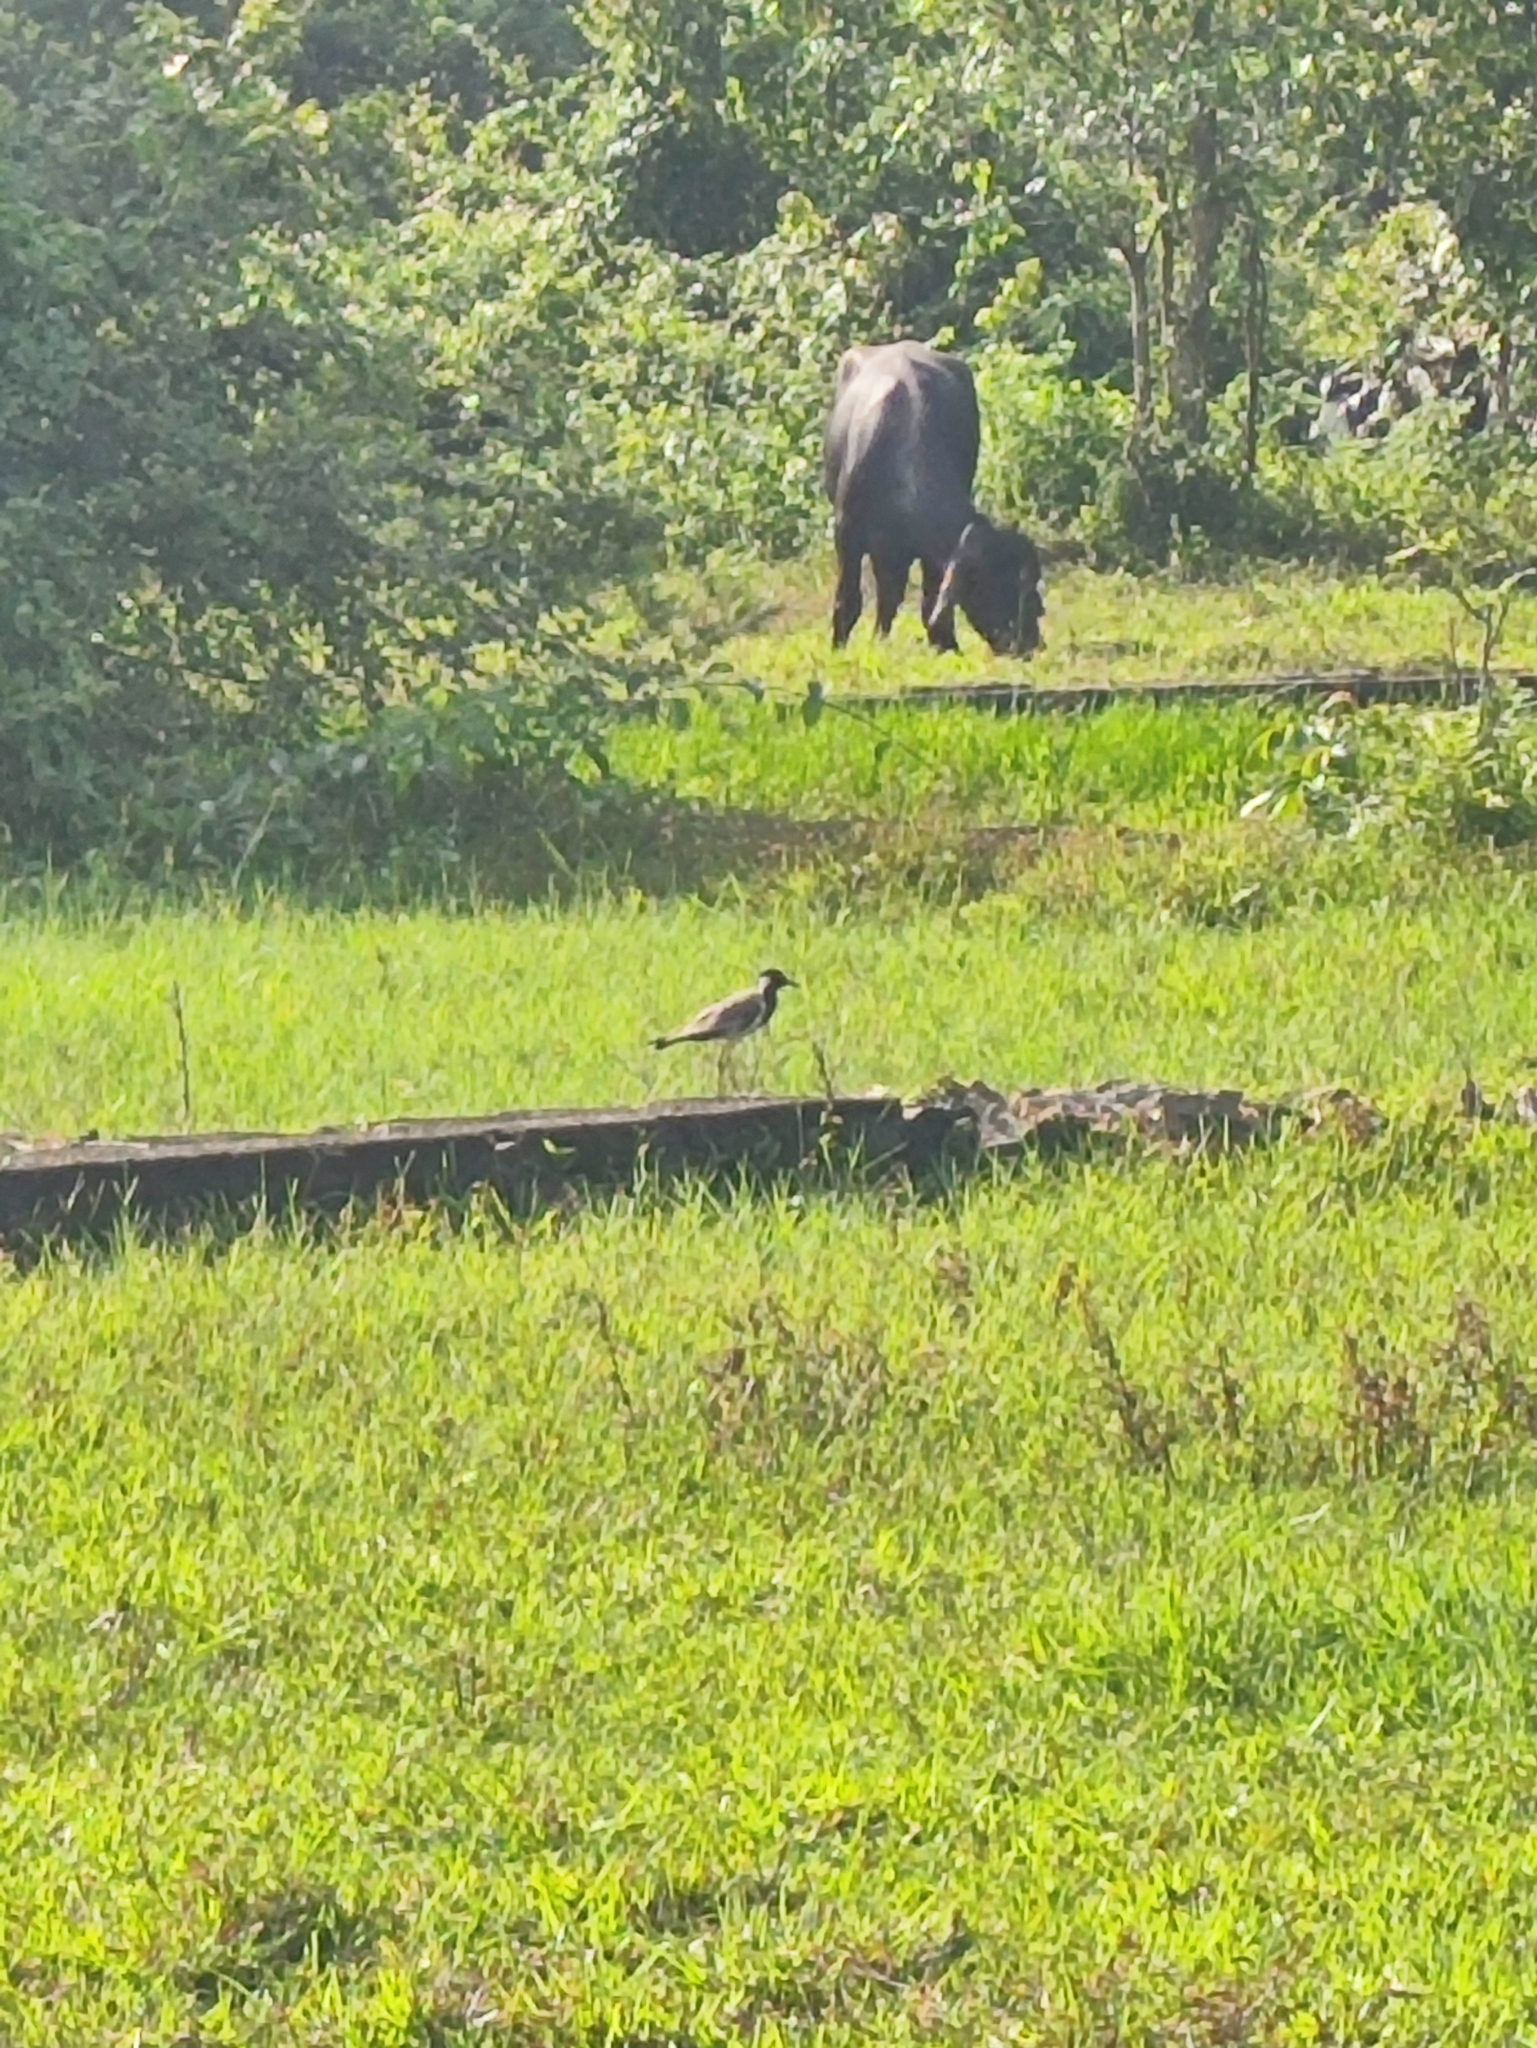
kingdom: Animalia
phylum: Chordata
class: Aves
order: Charadriiformes
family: Charadriidae
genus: Vanellus
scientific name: Vanellus indicus
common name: Red-wattled lapwing
